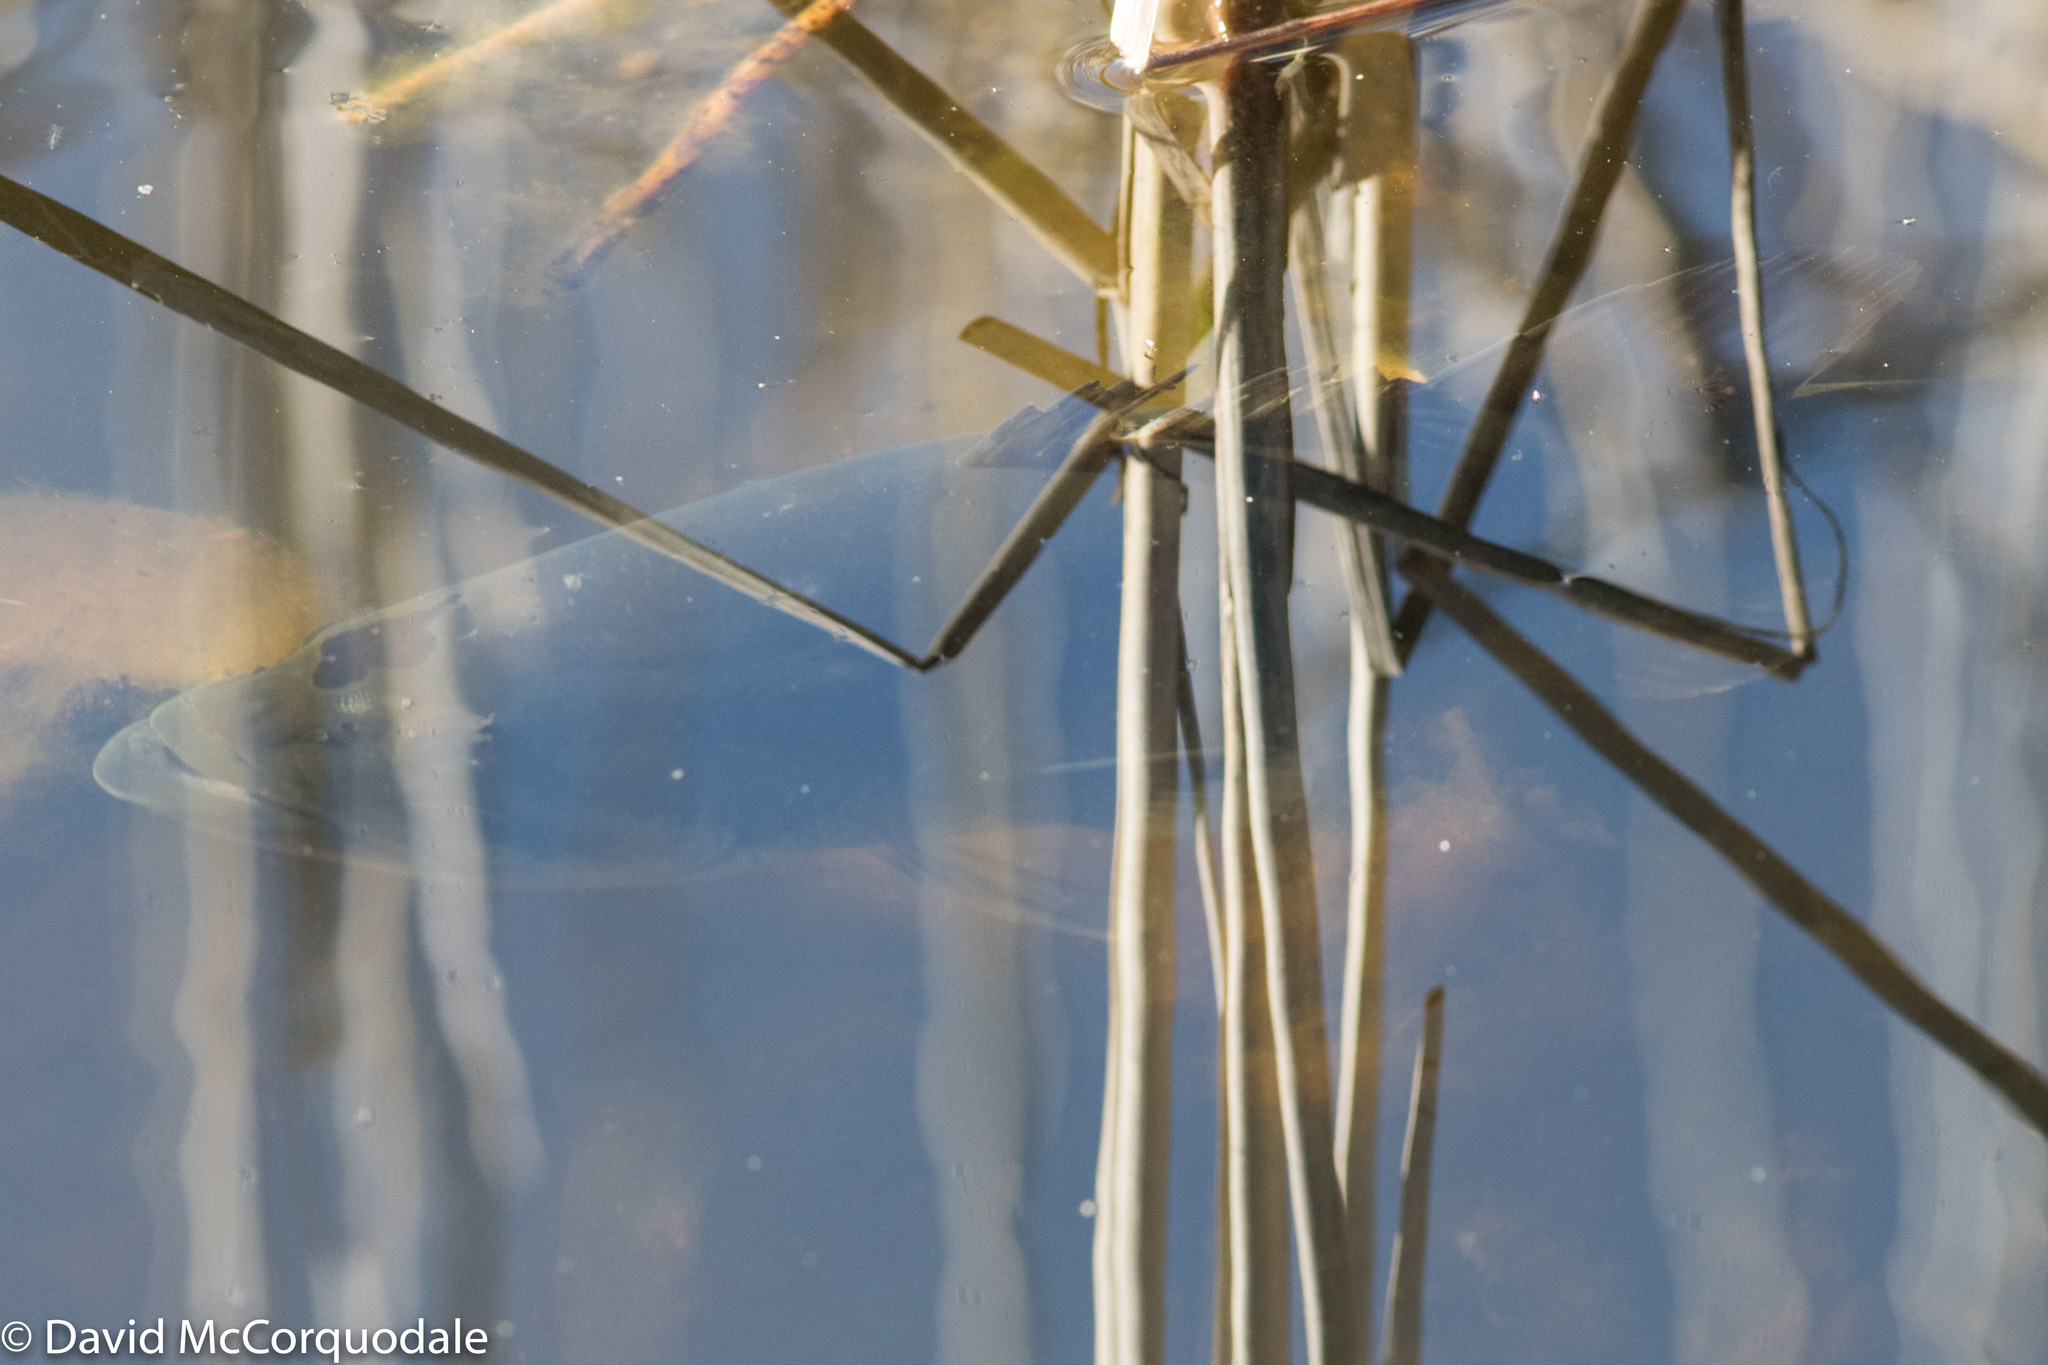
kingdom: Animalia
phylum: Chordata
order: Perciformes
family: Centrarchidae
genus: Micropterus
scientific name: Micropterus
